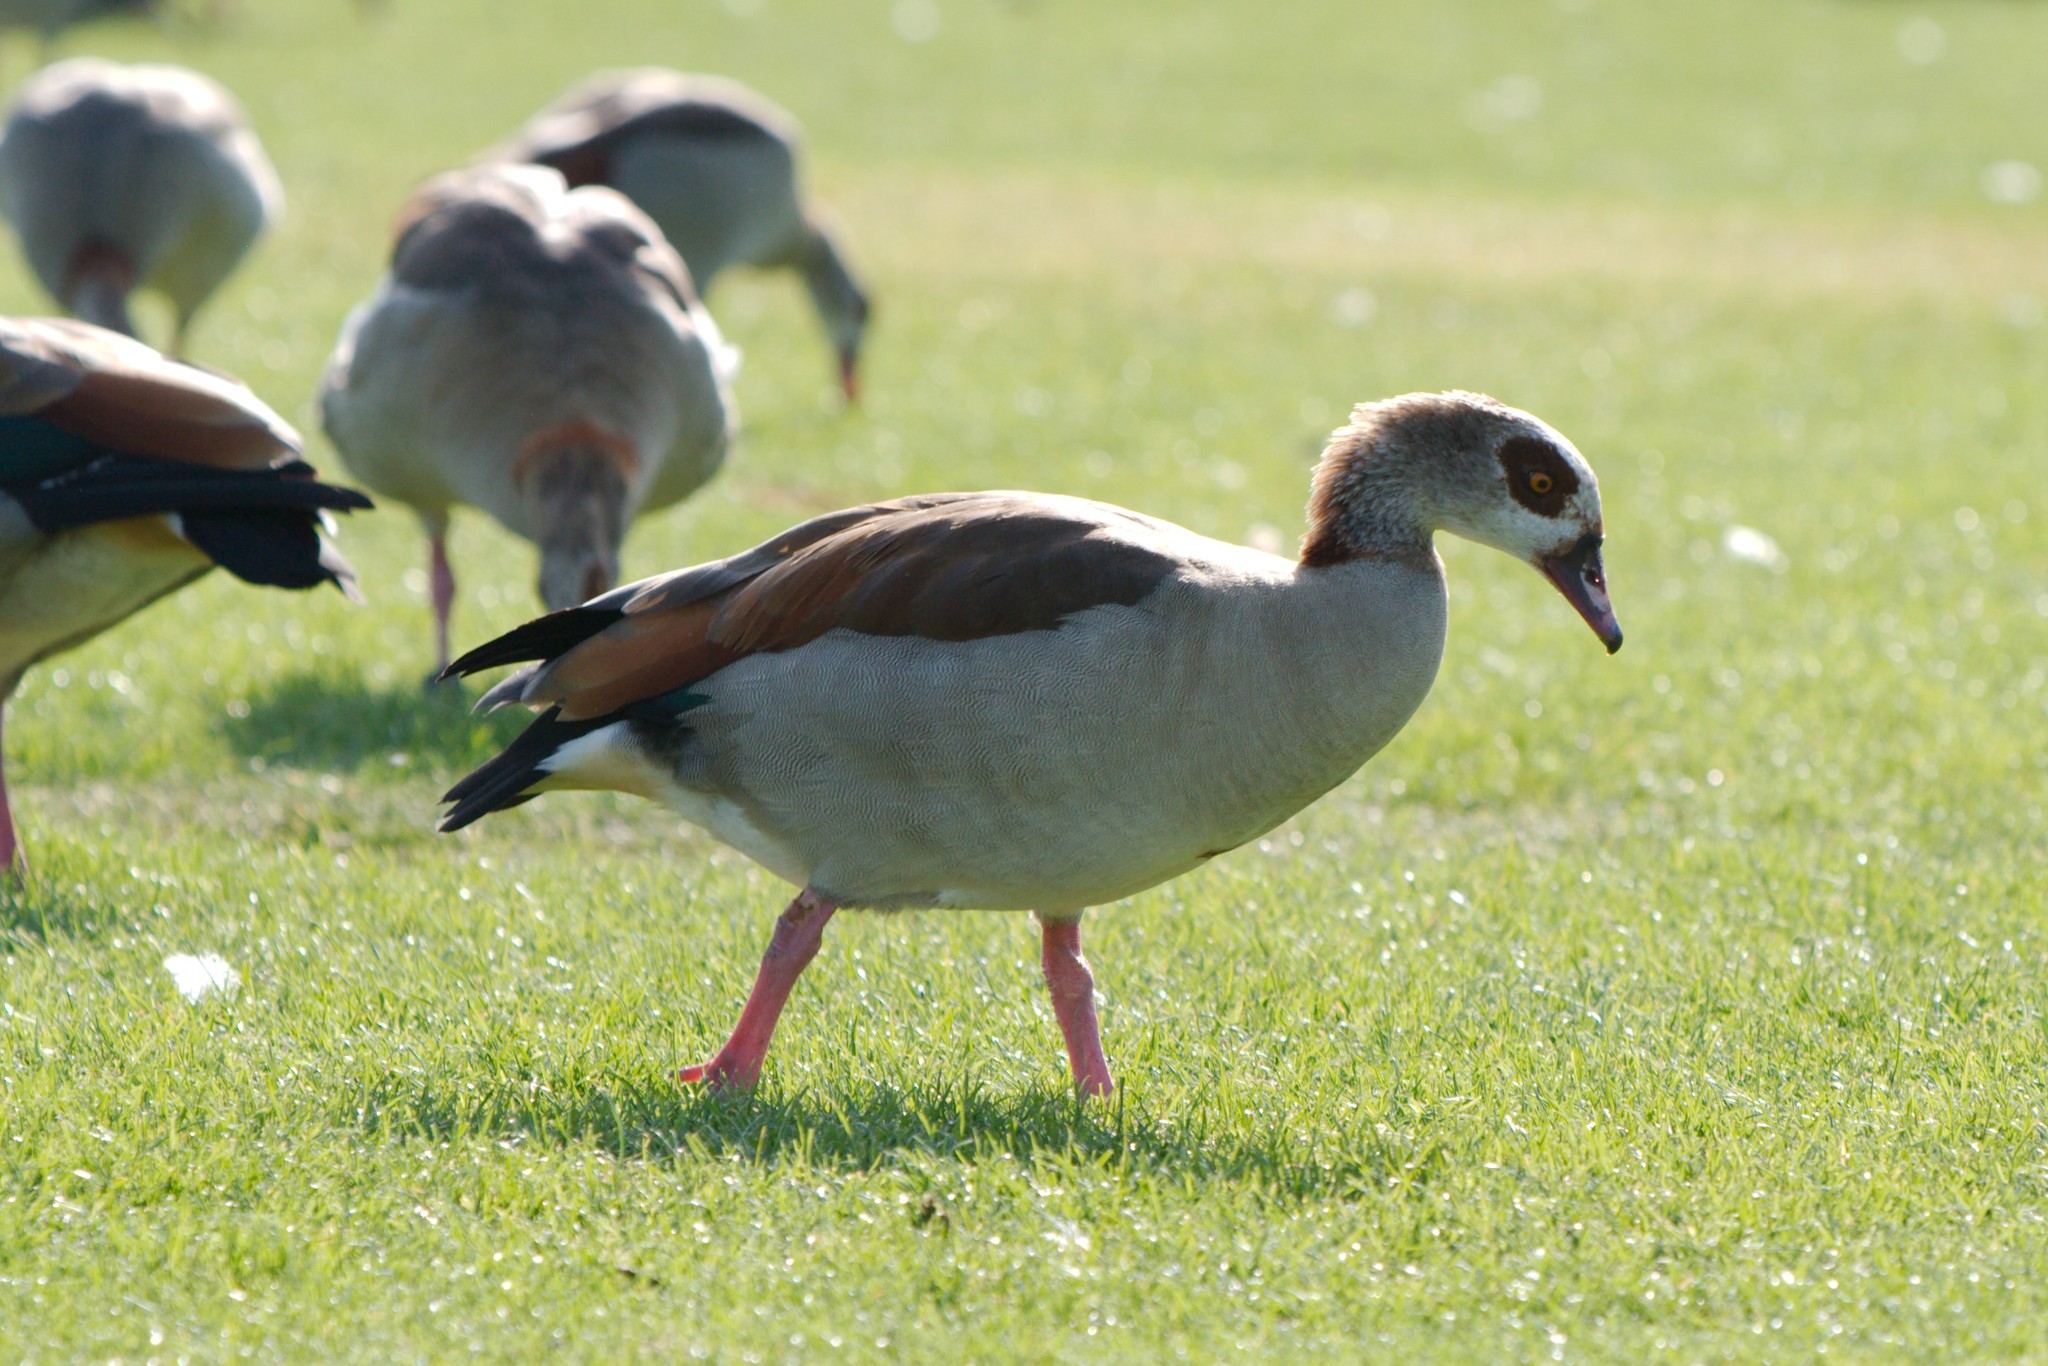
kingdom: Animalia
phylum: Chordata
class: Aves
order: Anseriformes
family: Anatidae
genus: Alopochen
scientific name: Alopochen aegyptiaca
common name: Egyptian goose
